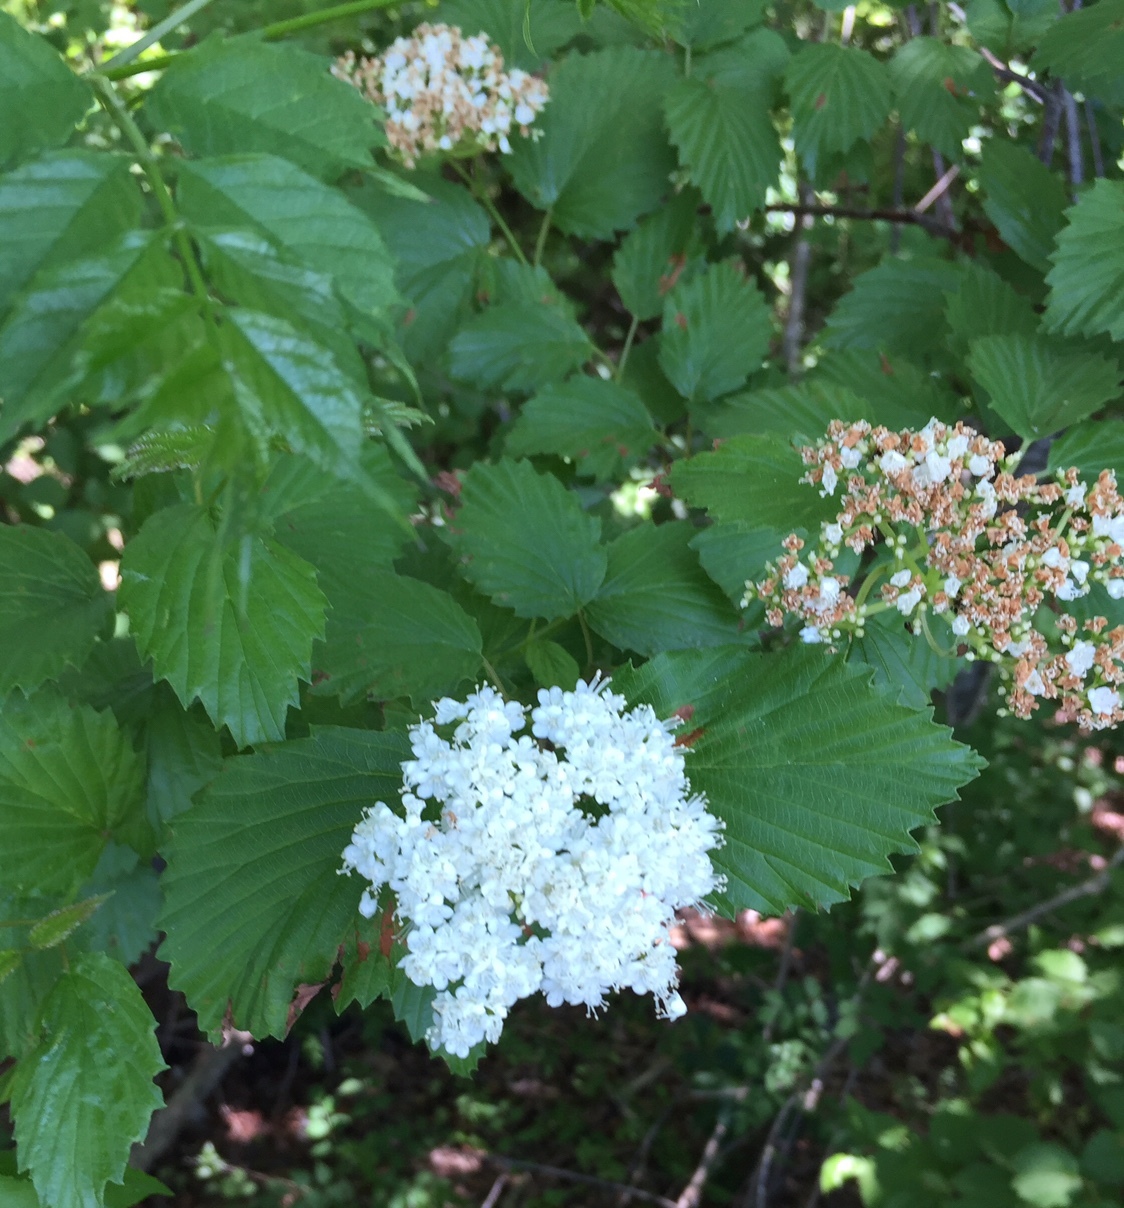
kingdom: Plantae
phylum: Tracheophyta
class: Magnoliopsida
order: Dipsacales
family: Viburnaceae
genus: Viburnum
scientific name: Viburnum dentatum
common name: Arrow-wood
